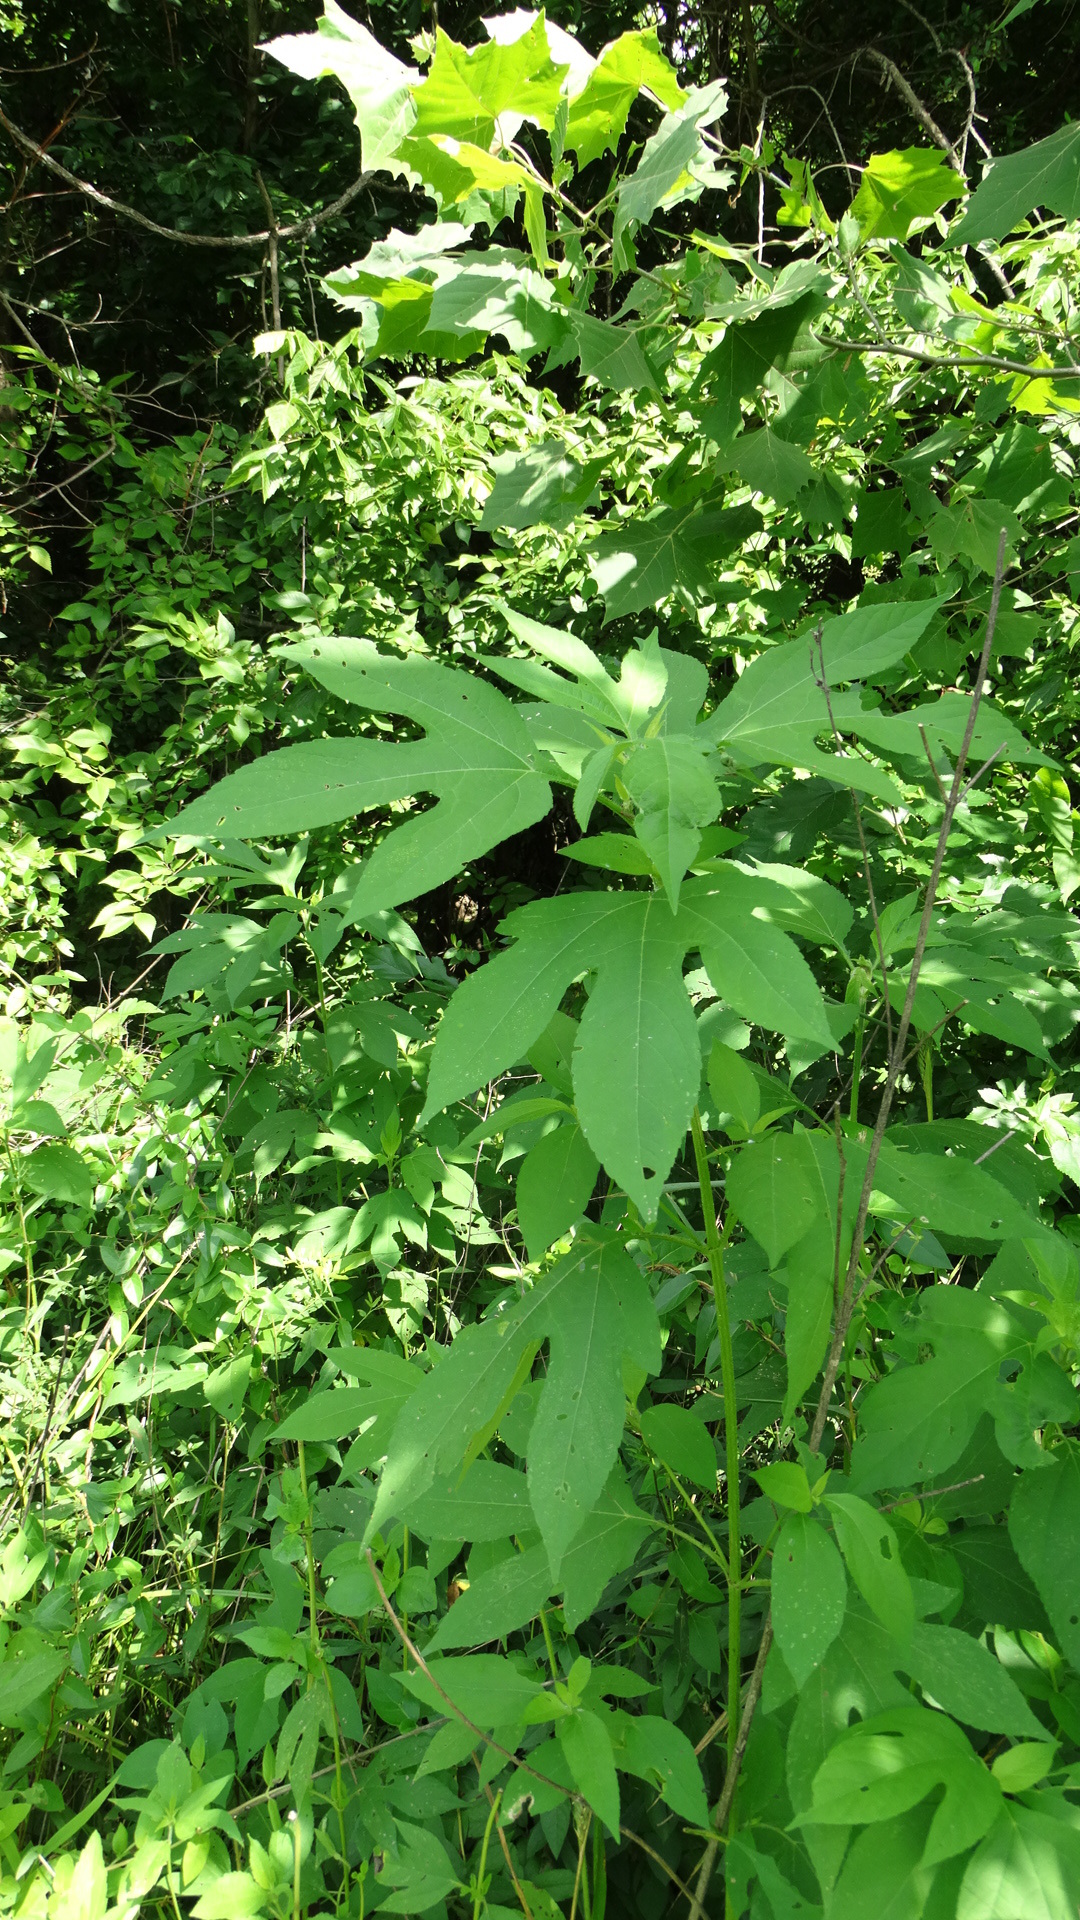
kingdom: Plantae
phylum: Tracheophyta
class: Magnoliopsida
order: Asterales
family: Asteraceae
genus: Ambrosia
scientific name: Ambrosia trifida
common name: Giant ragweed
